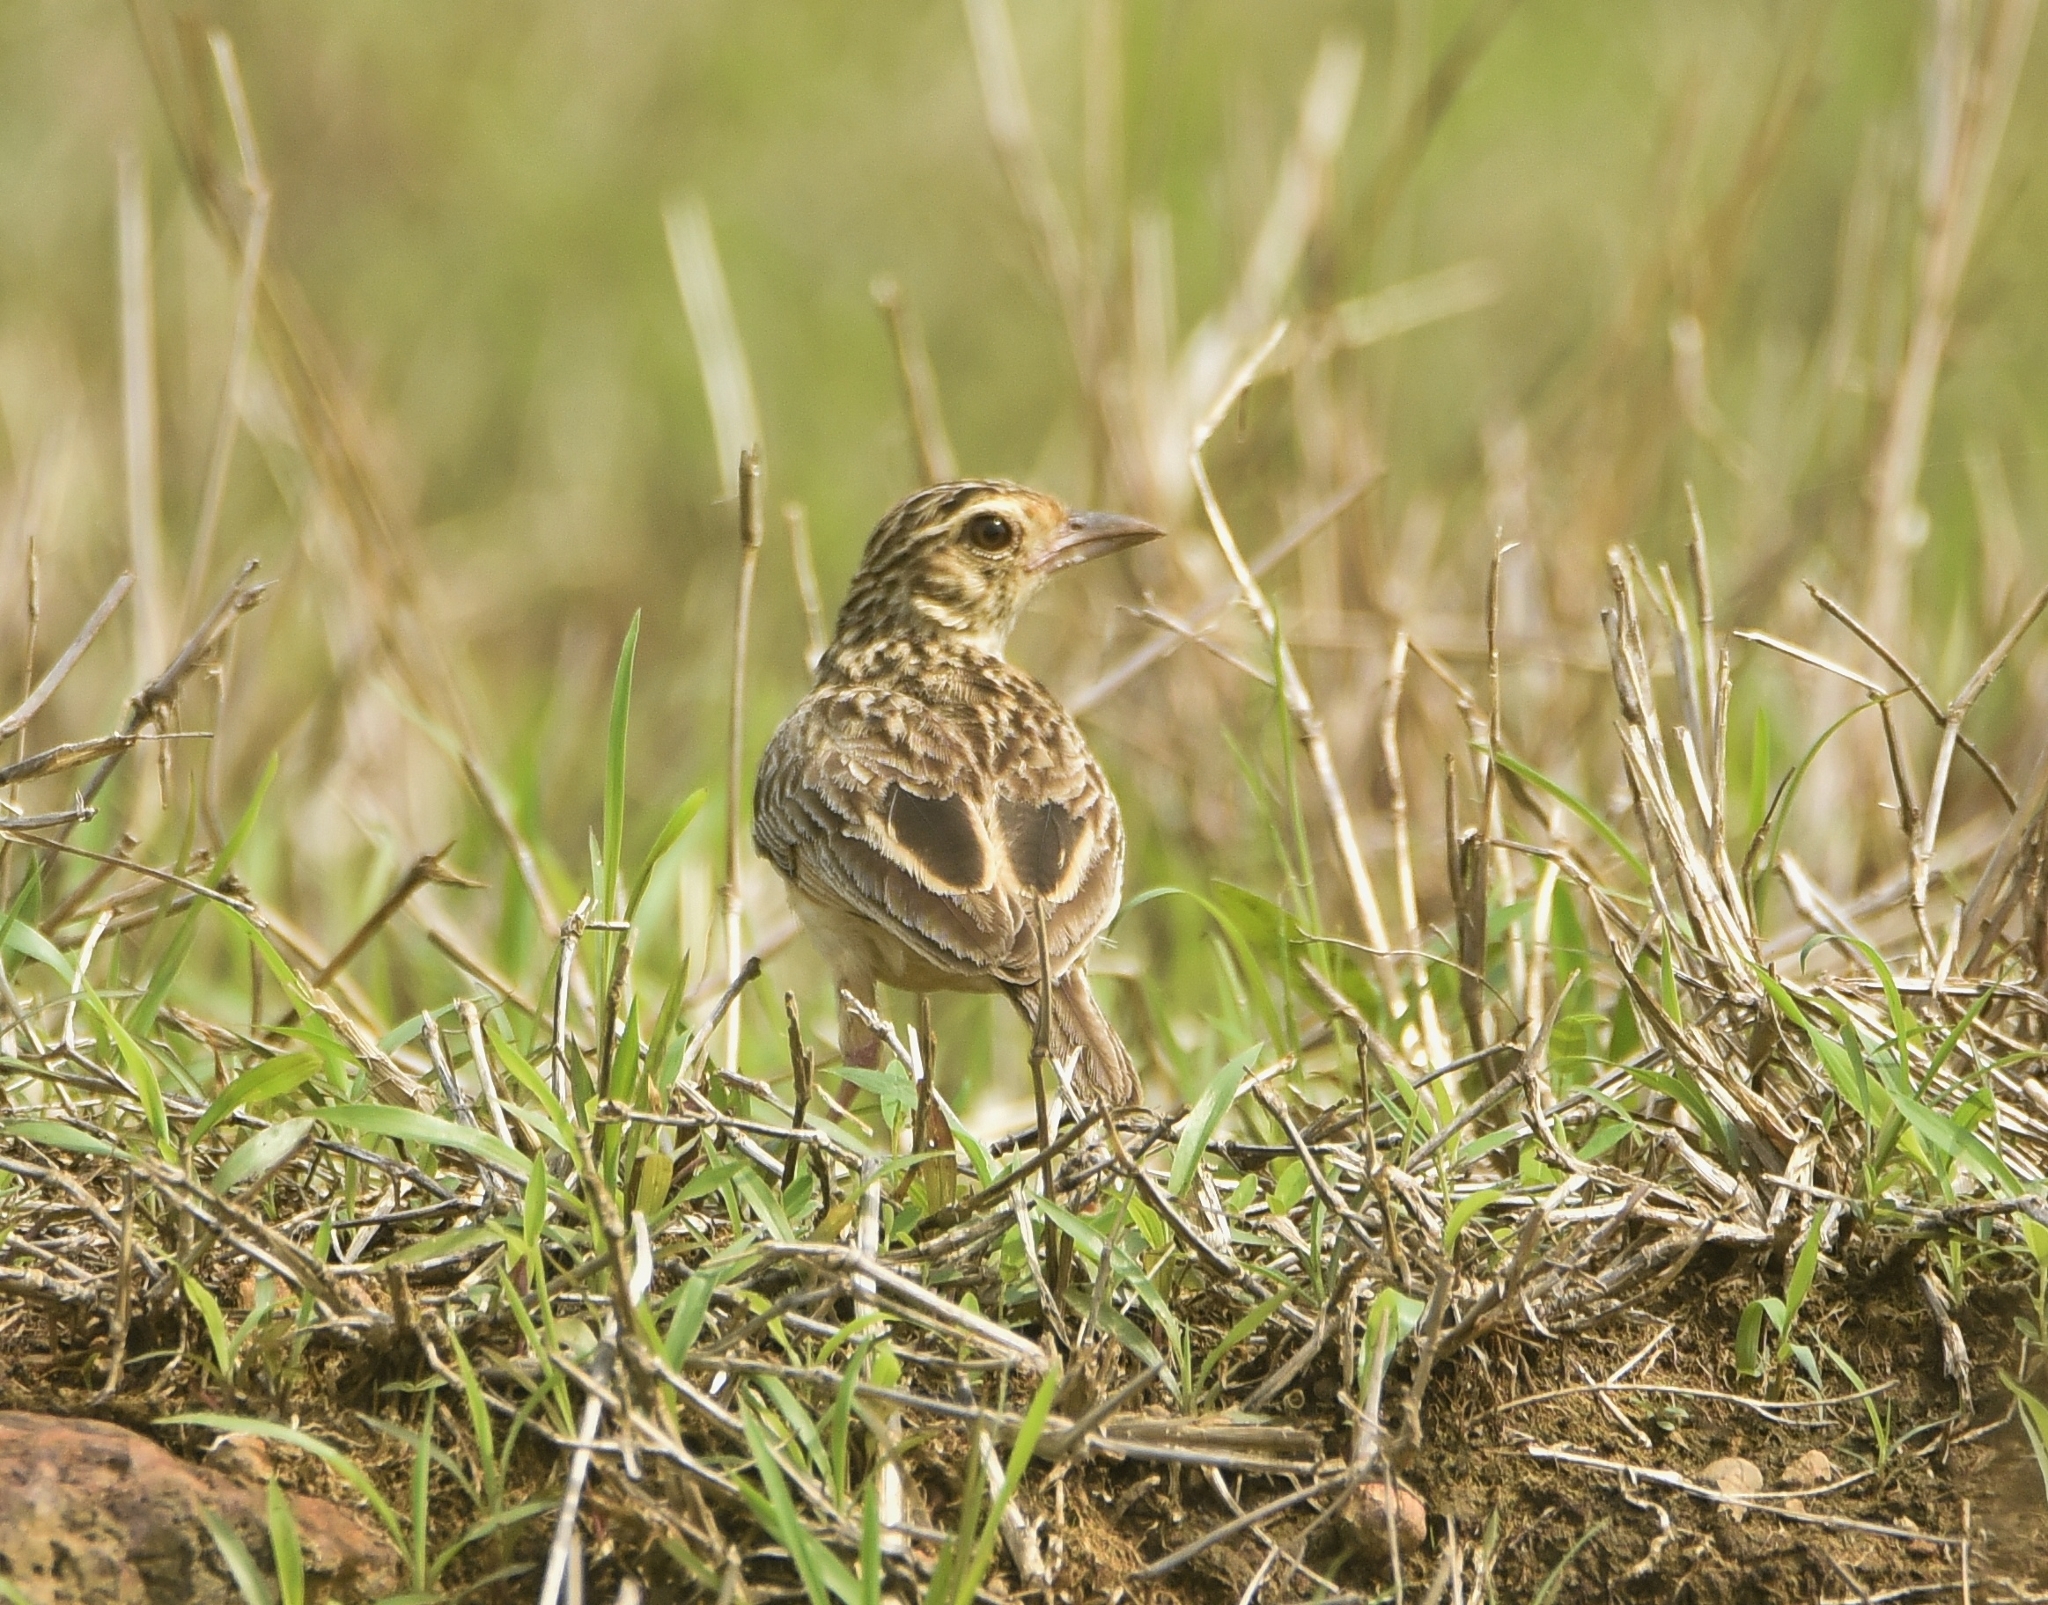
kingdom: Animalia
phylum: Chordata
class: Aves
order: Passeriformes
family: Alaudidae
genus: Mirafra
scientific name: Mirafra affinis
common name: Jerdon's bushlark
